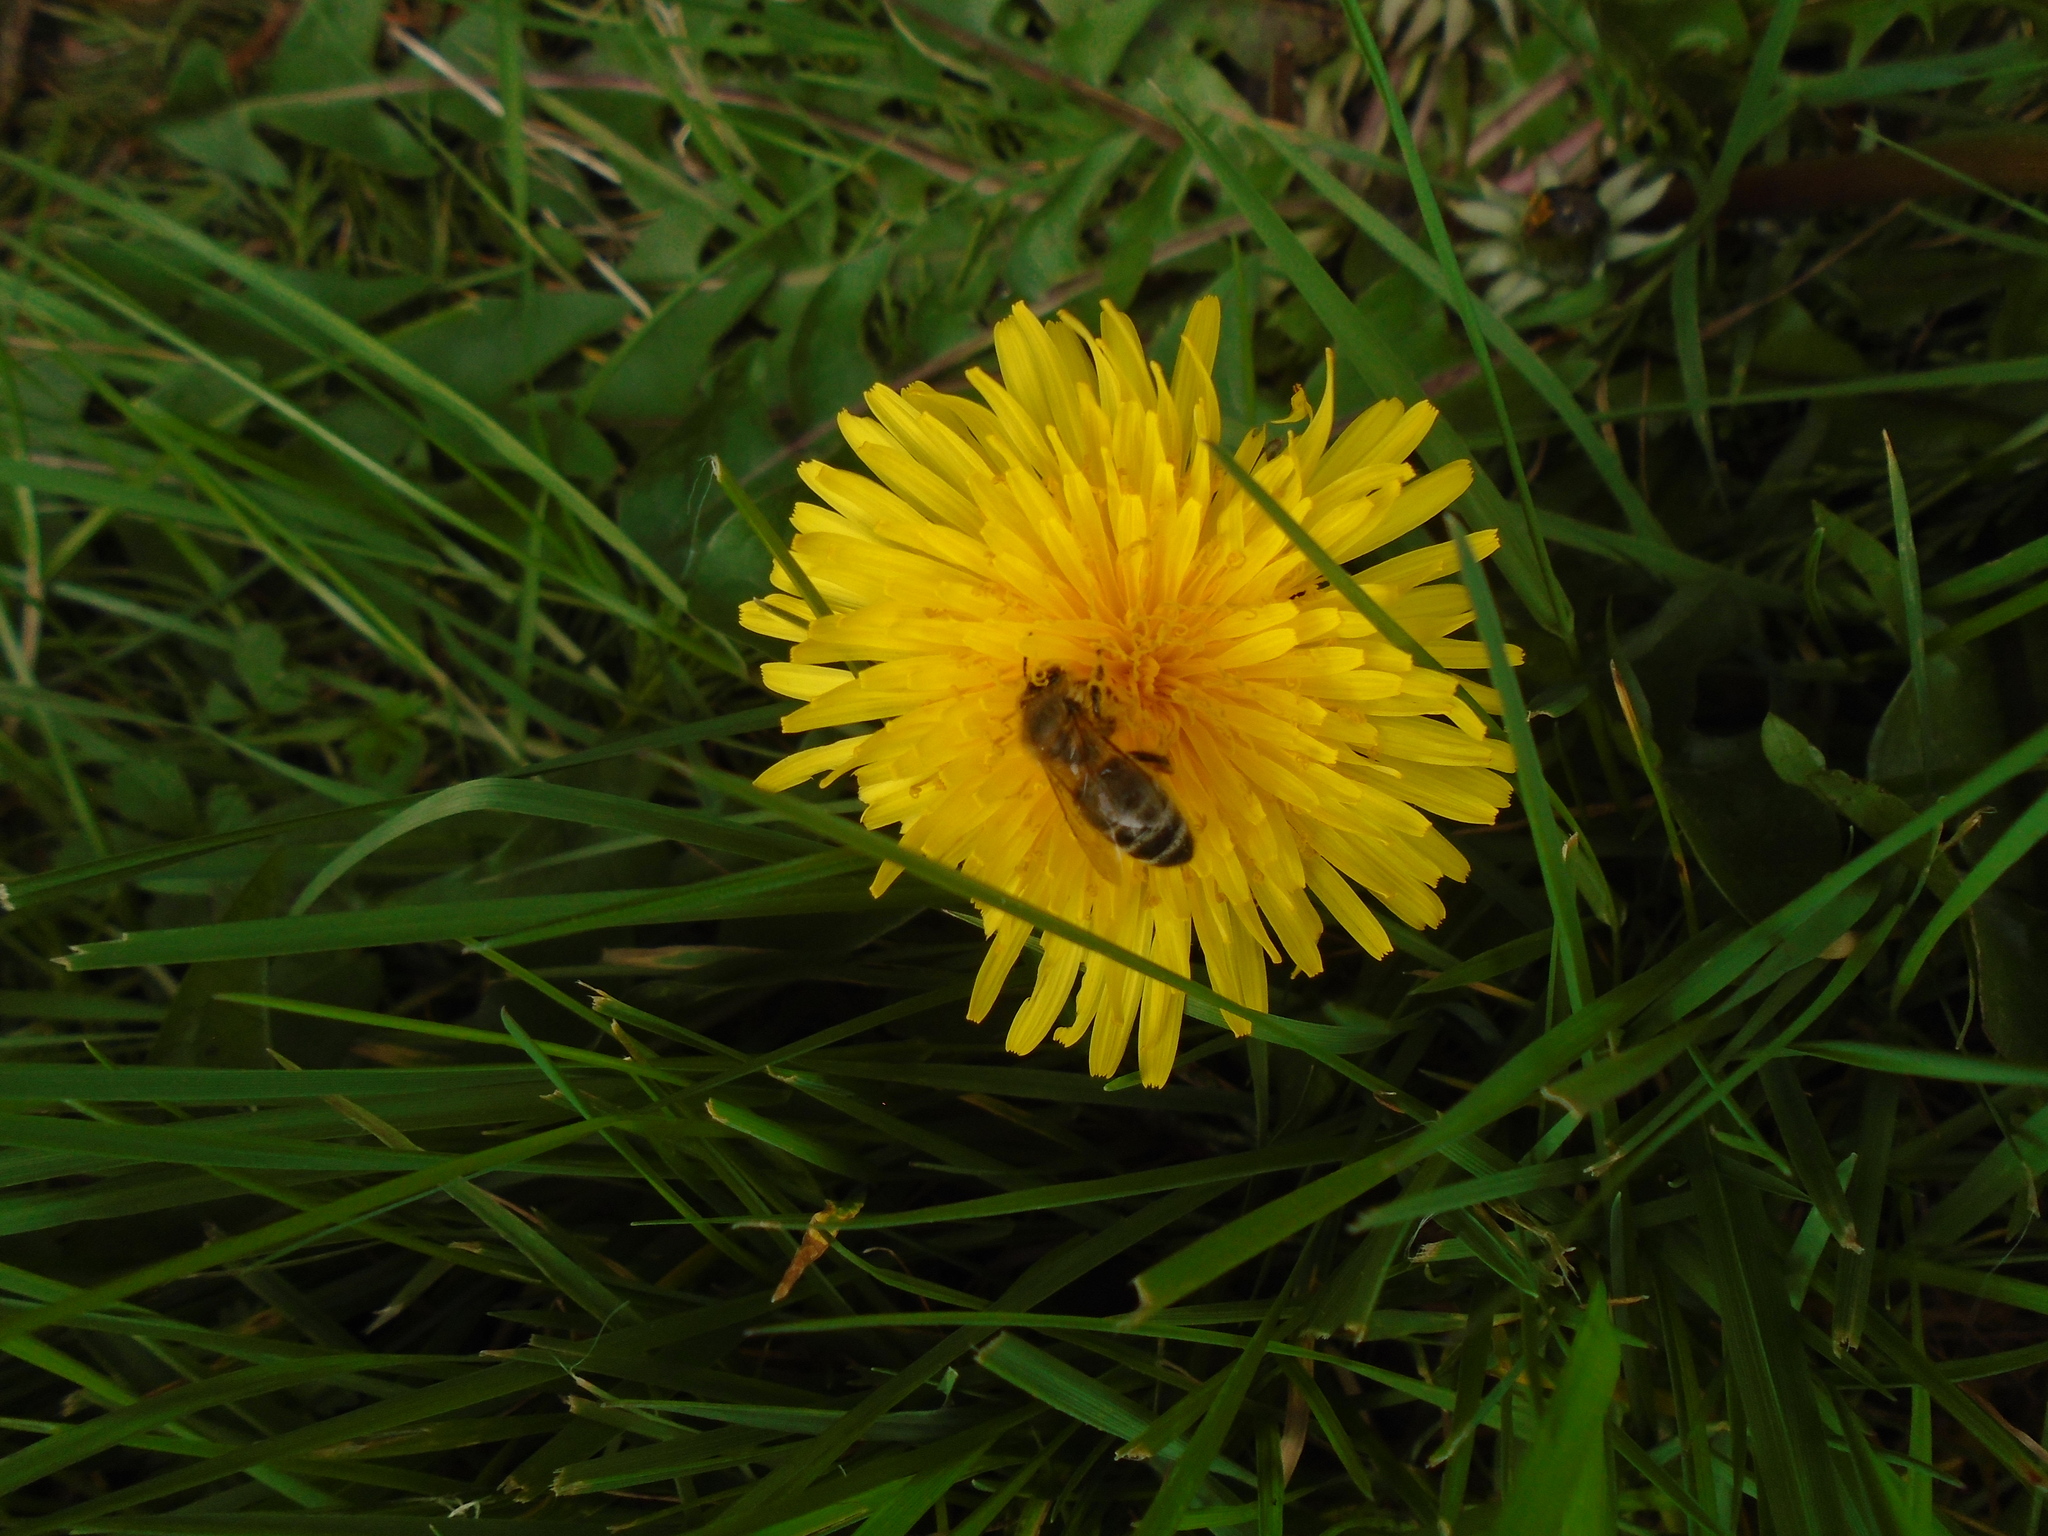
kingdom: Animalia
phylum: Arthropoda
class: Insecta
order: Hymenoptera
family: Apidae
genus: Apis
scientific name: Apis mellifera
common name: Honey bee
